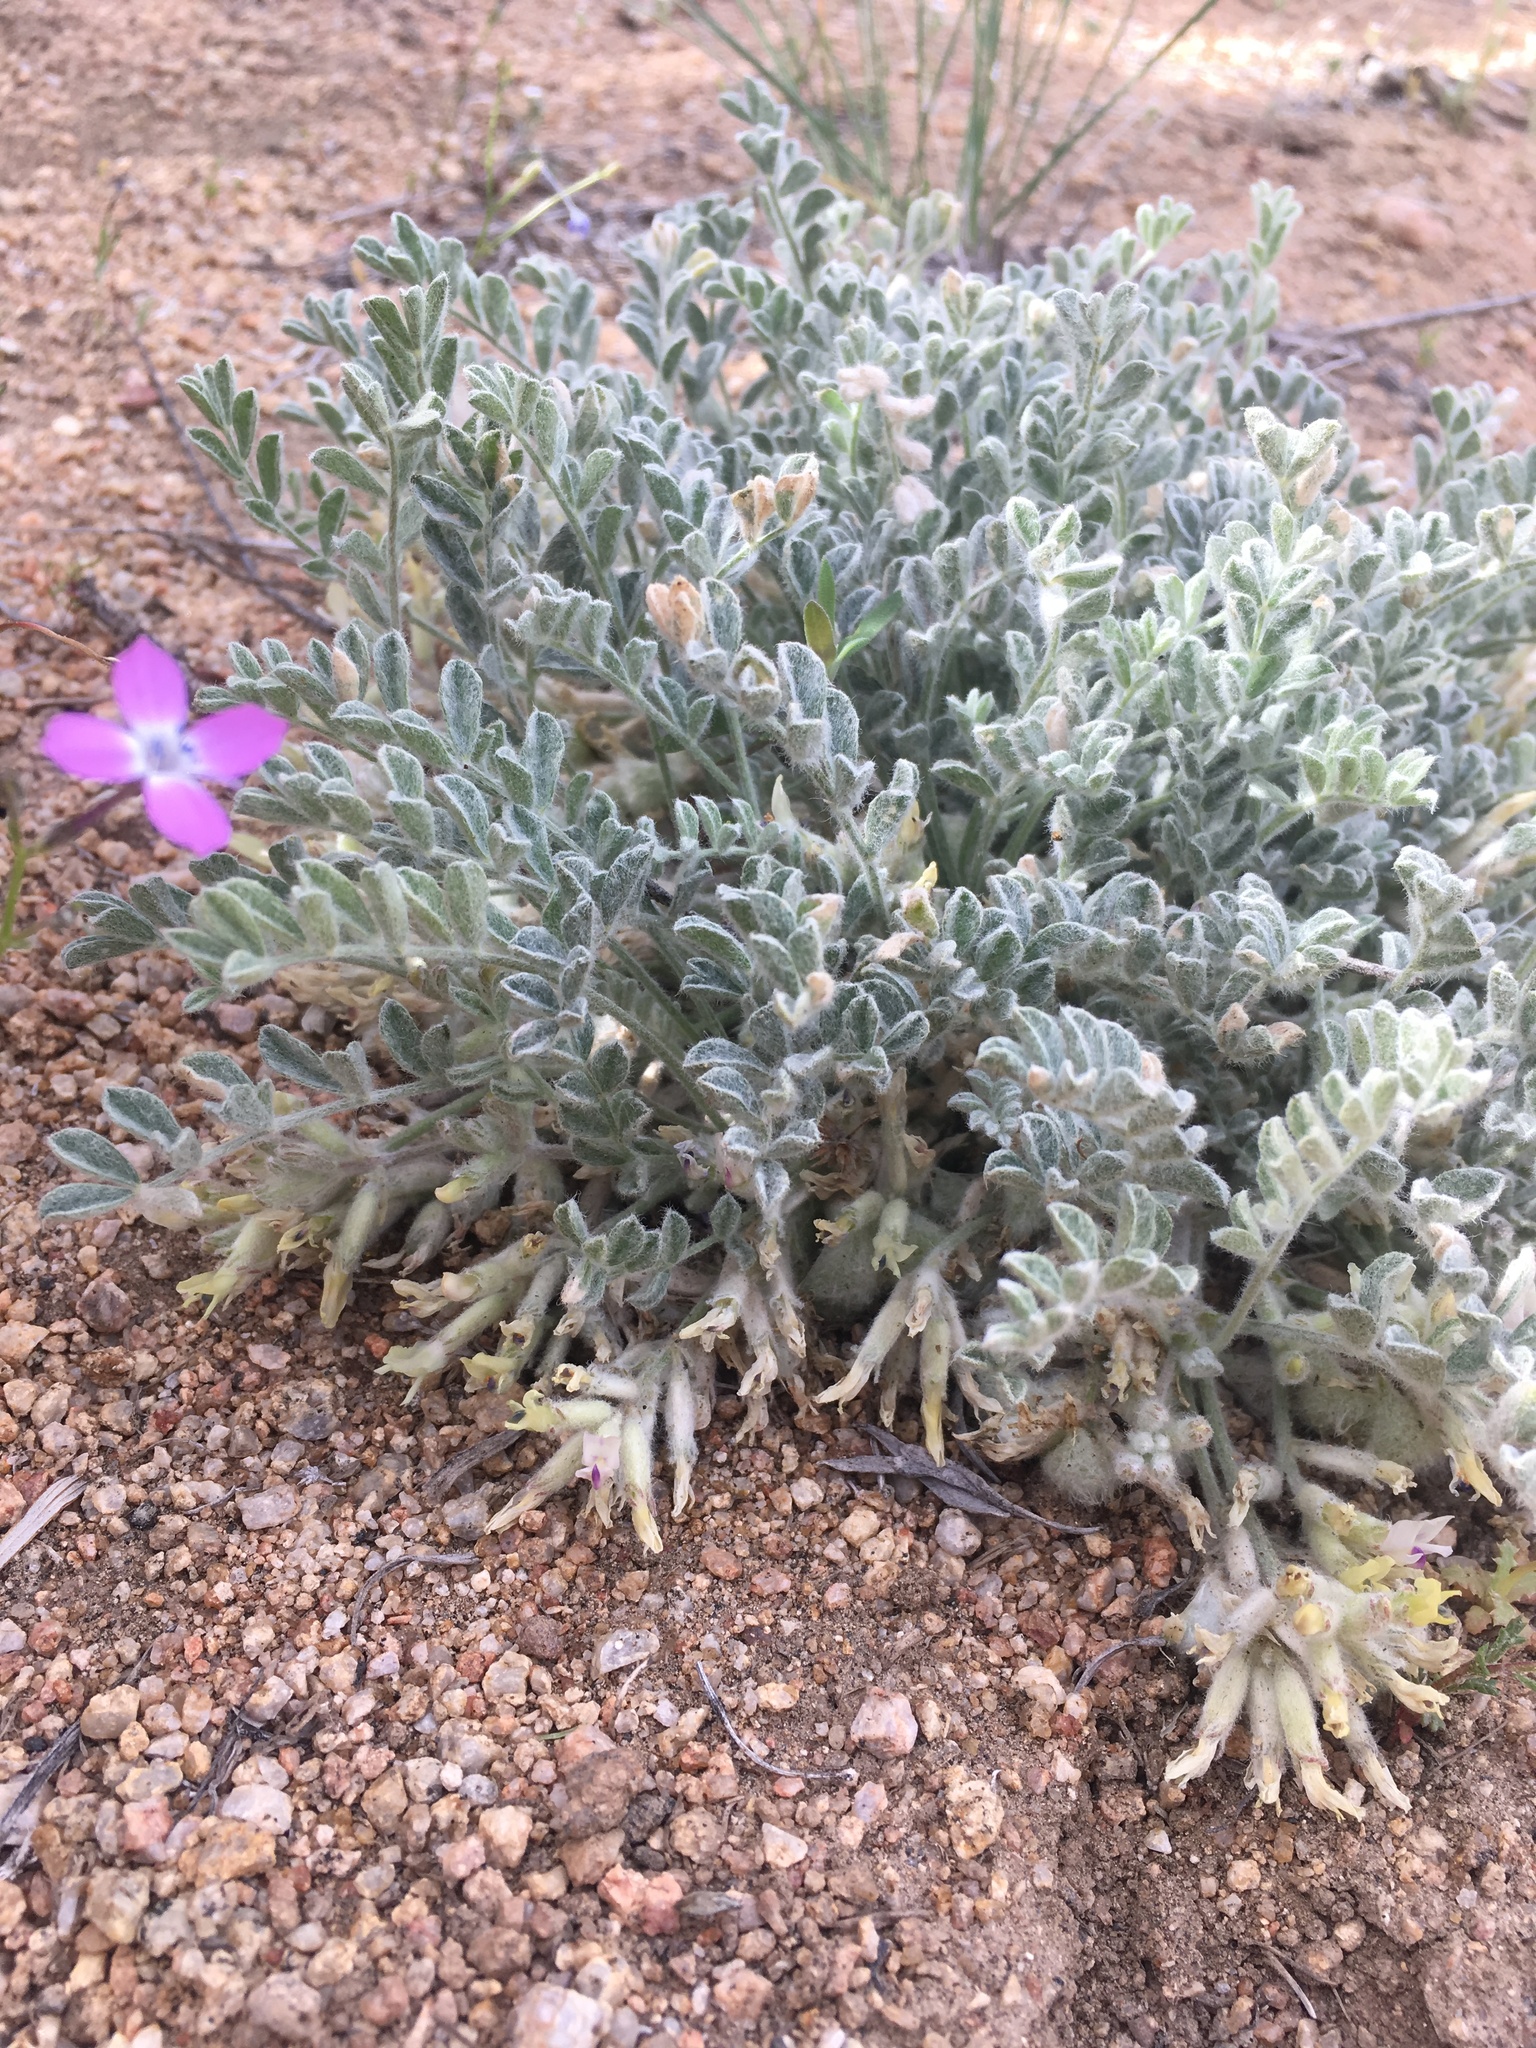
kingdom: Plantae
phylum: Tracheophyta
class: Magnoliopsida
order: Fabales
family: Fabaceae
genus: Astragalus
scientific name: Astragalus subvestitus
